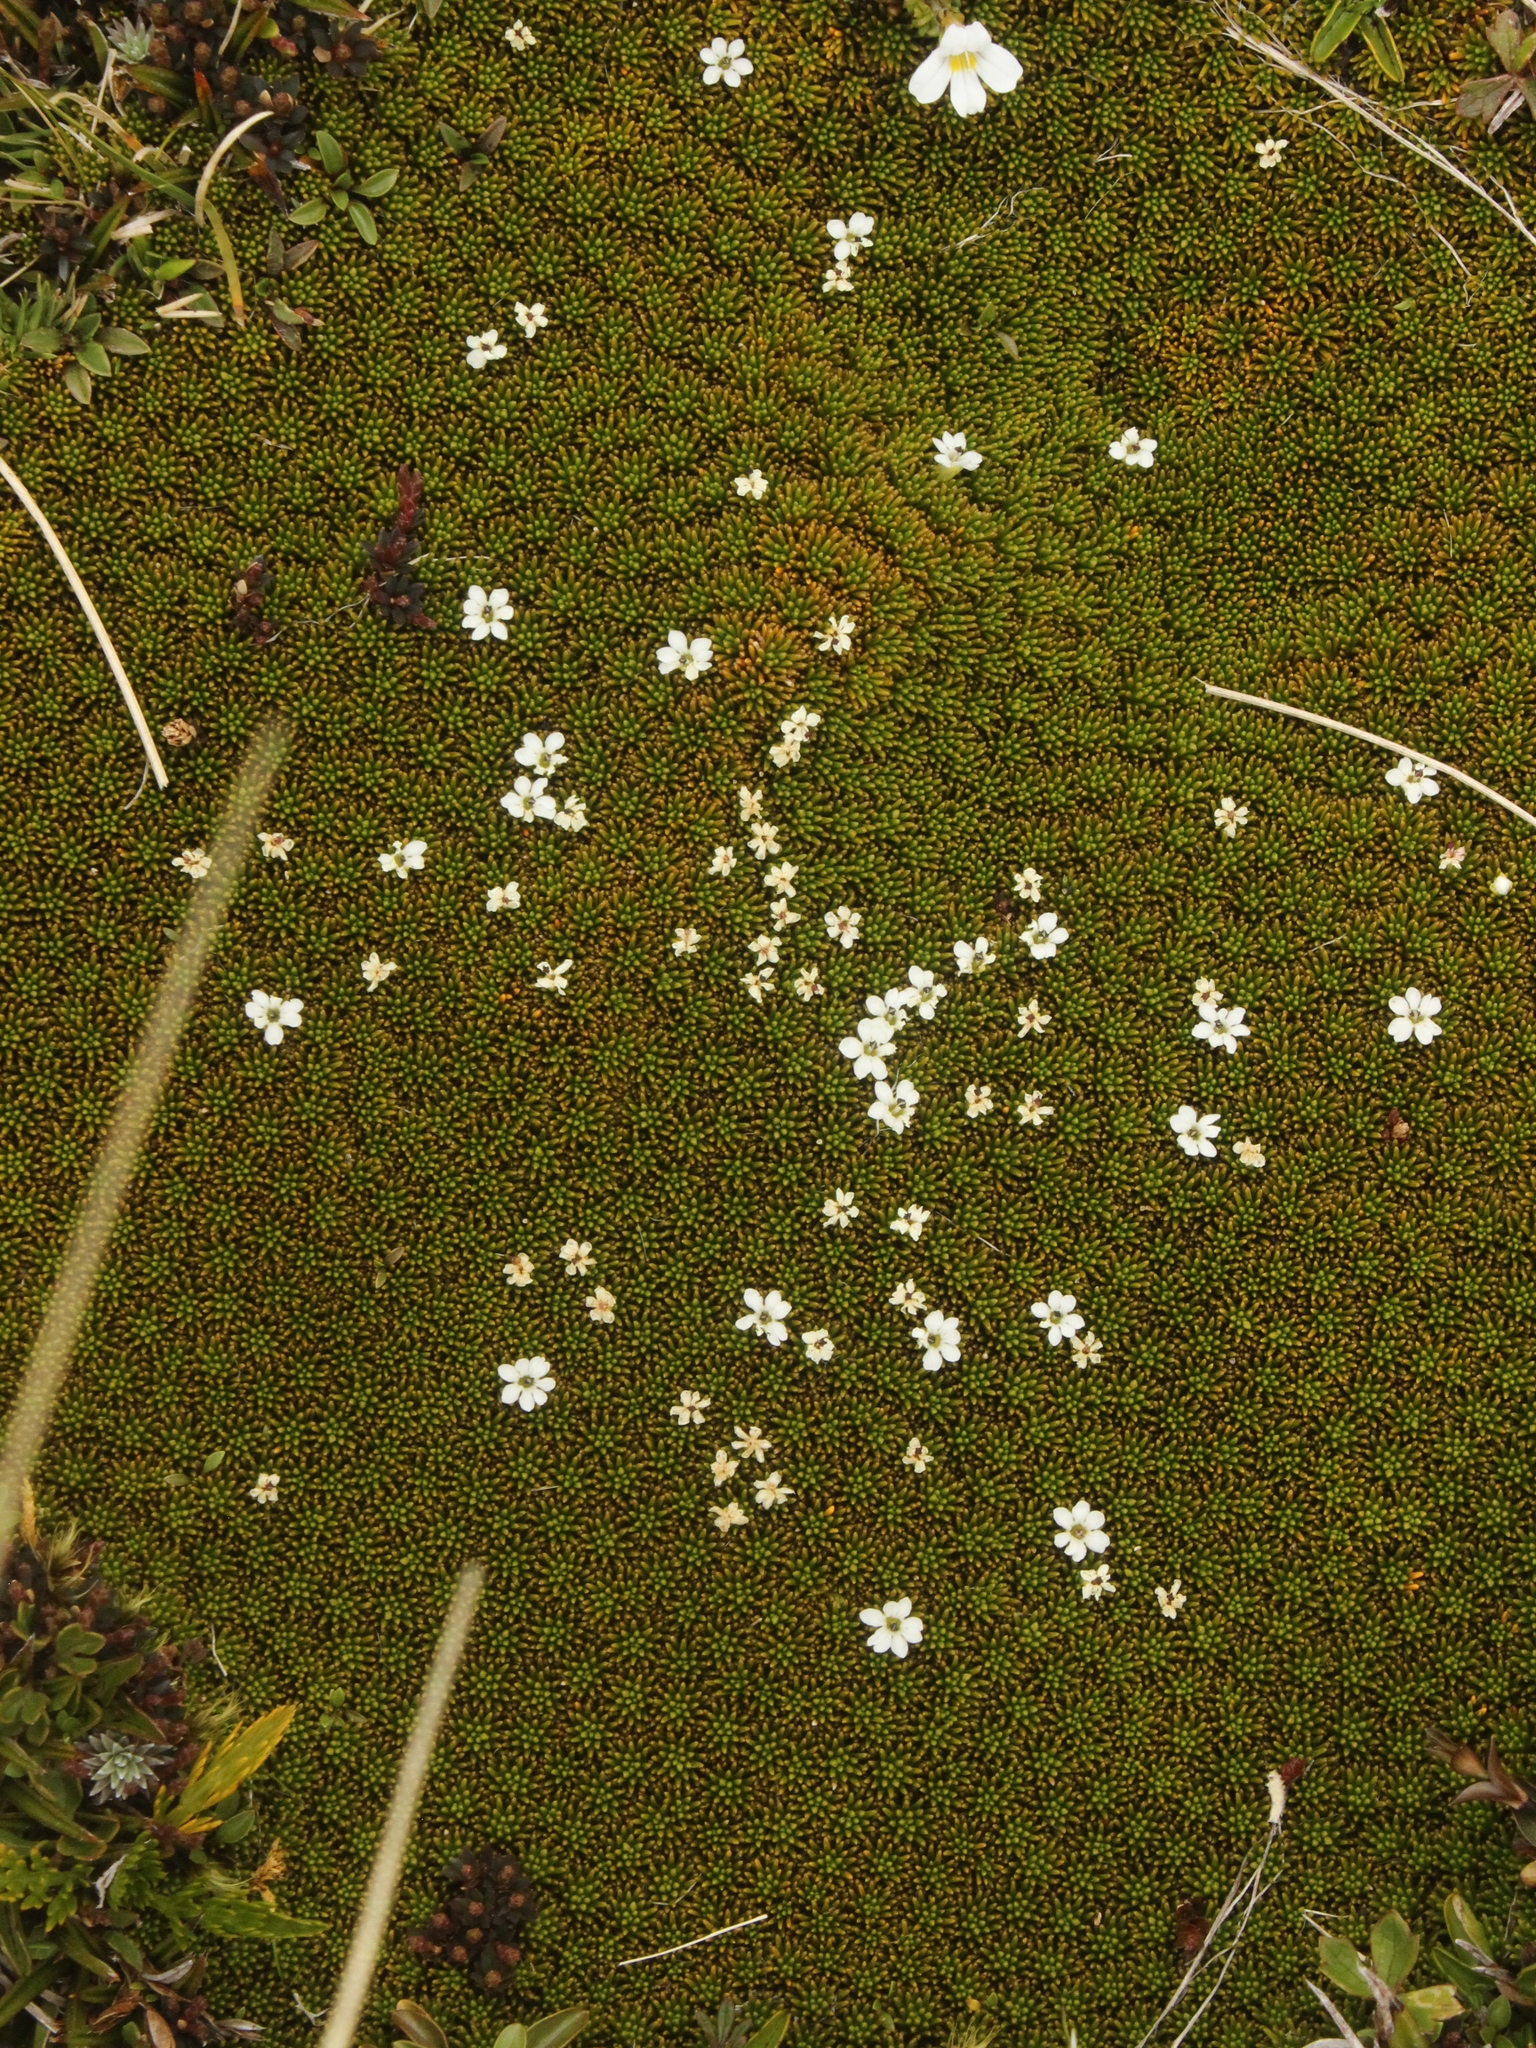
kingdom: Plantae
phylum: Tracheophyta
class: Magnoliopsida
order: Asterales
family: Stylidiaceae
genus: Phyllachne
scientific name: Phyllachne colensoi
